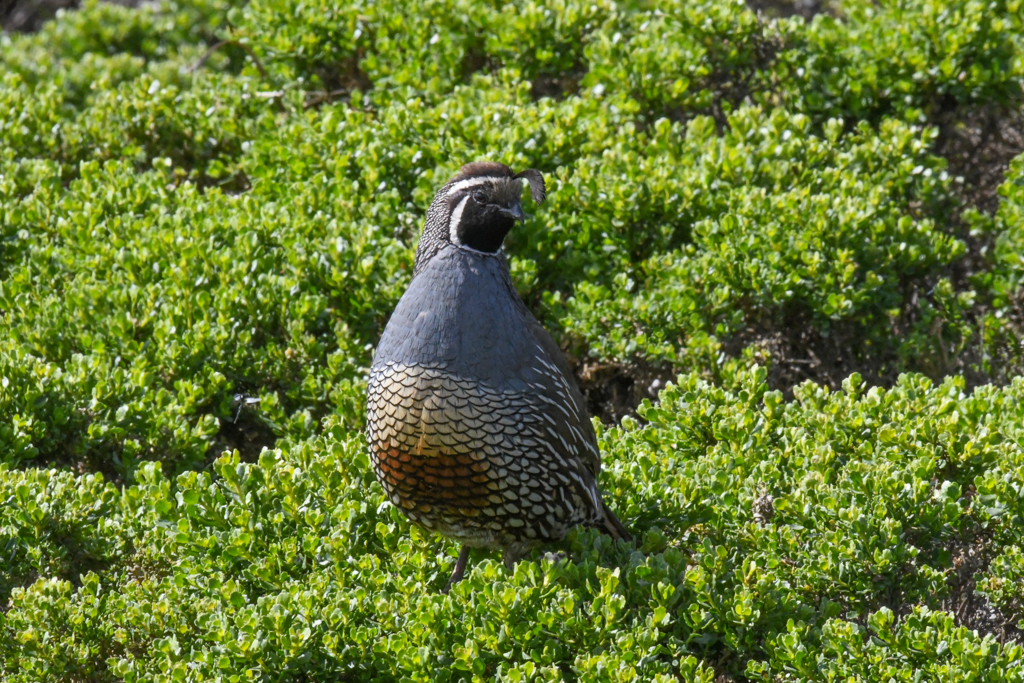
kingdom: Animalia
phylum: Chordata
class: Aves
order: Galliformes
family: Odontophoridae
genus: Callipepla
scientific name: Callipepla californica
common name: California quail
